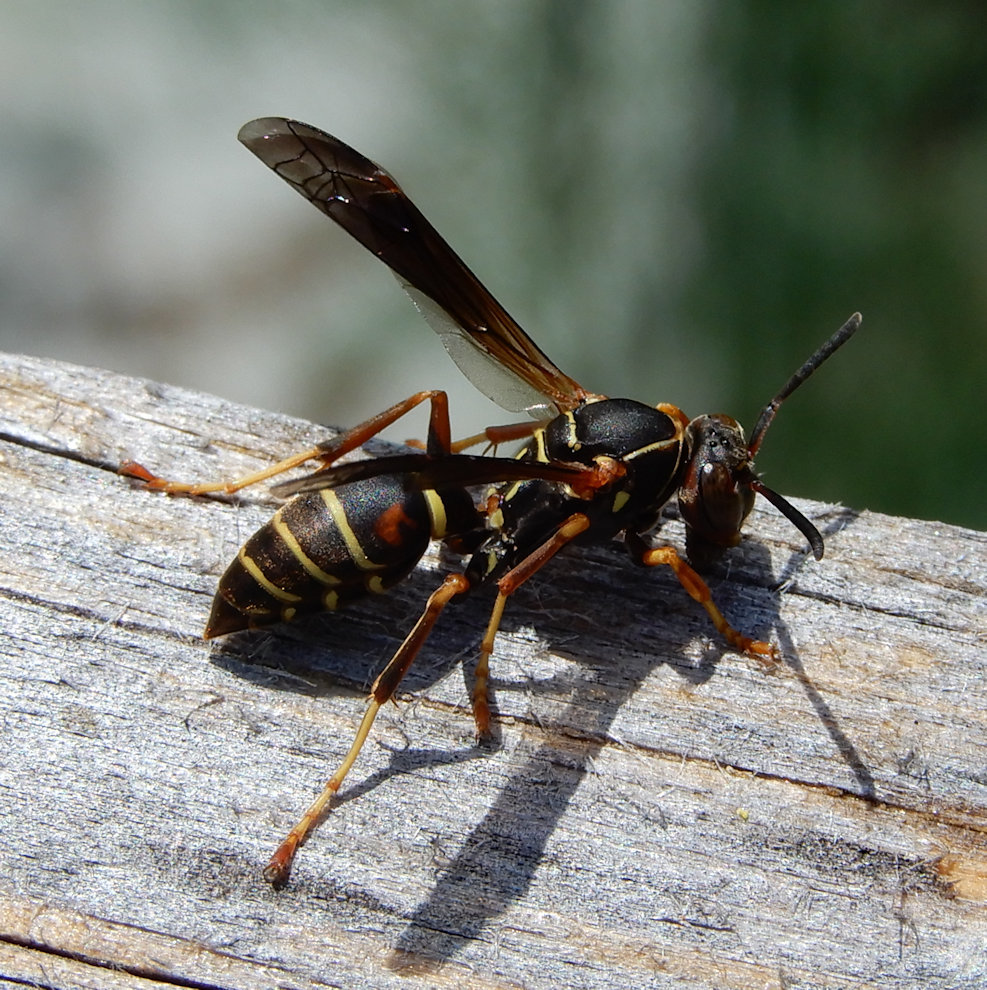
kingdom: Animalia
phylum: Arthropoda
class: Insecta
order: Hymenoptera
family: Eumenidae
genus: Polistes
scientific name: Polistes fuscatus
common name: Dark paper wasp
